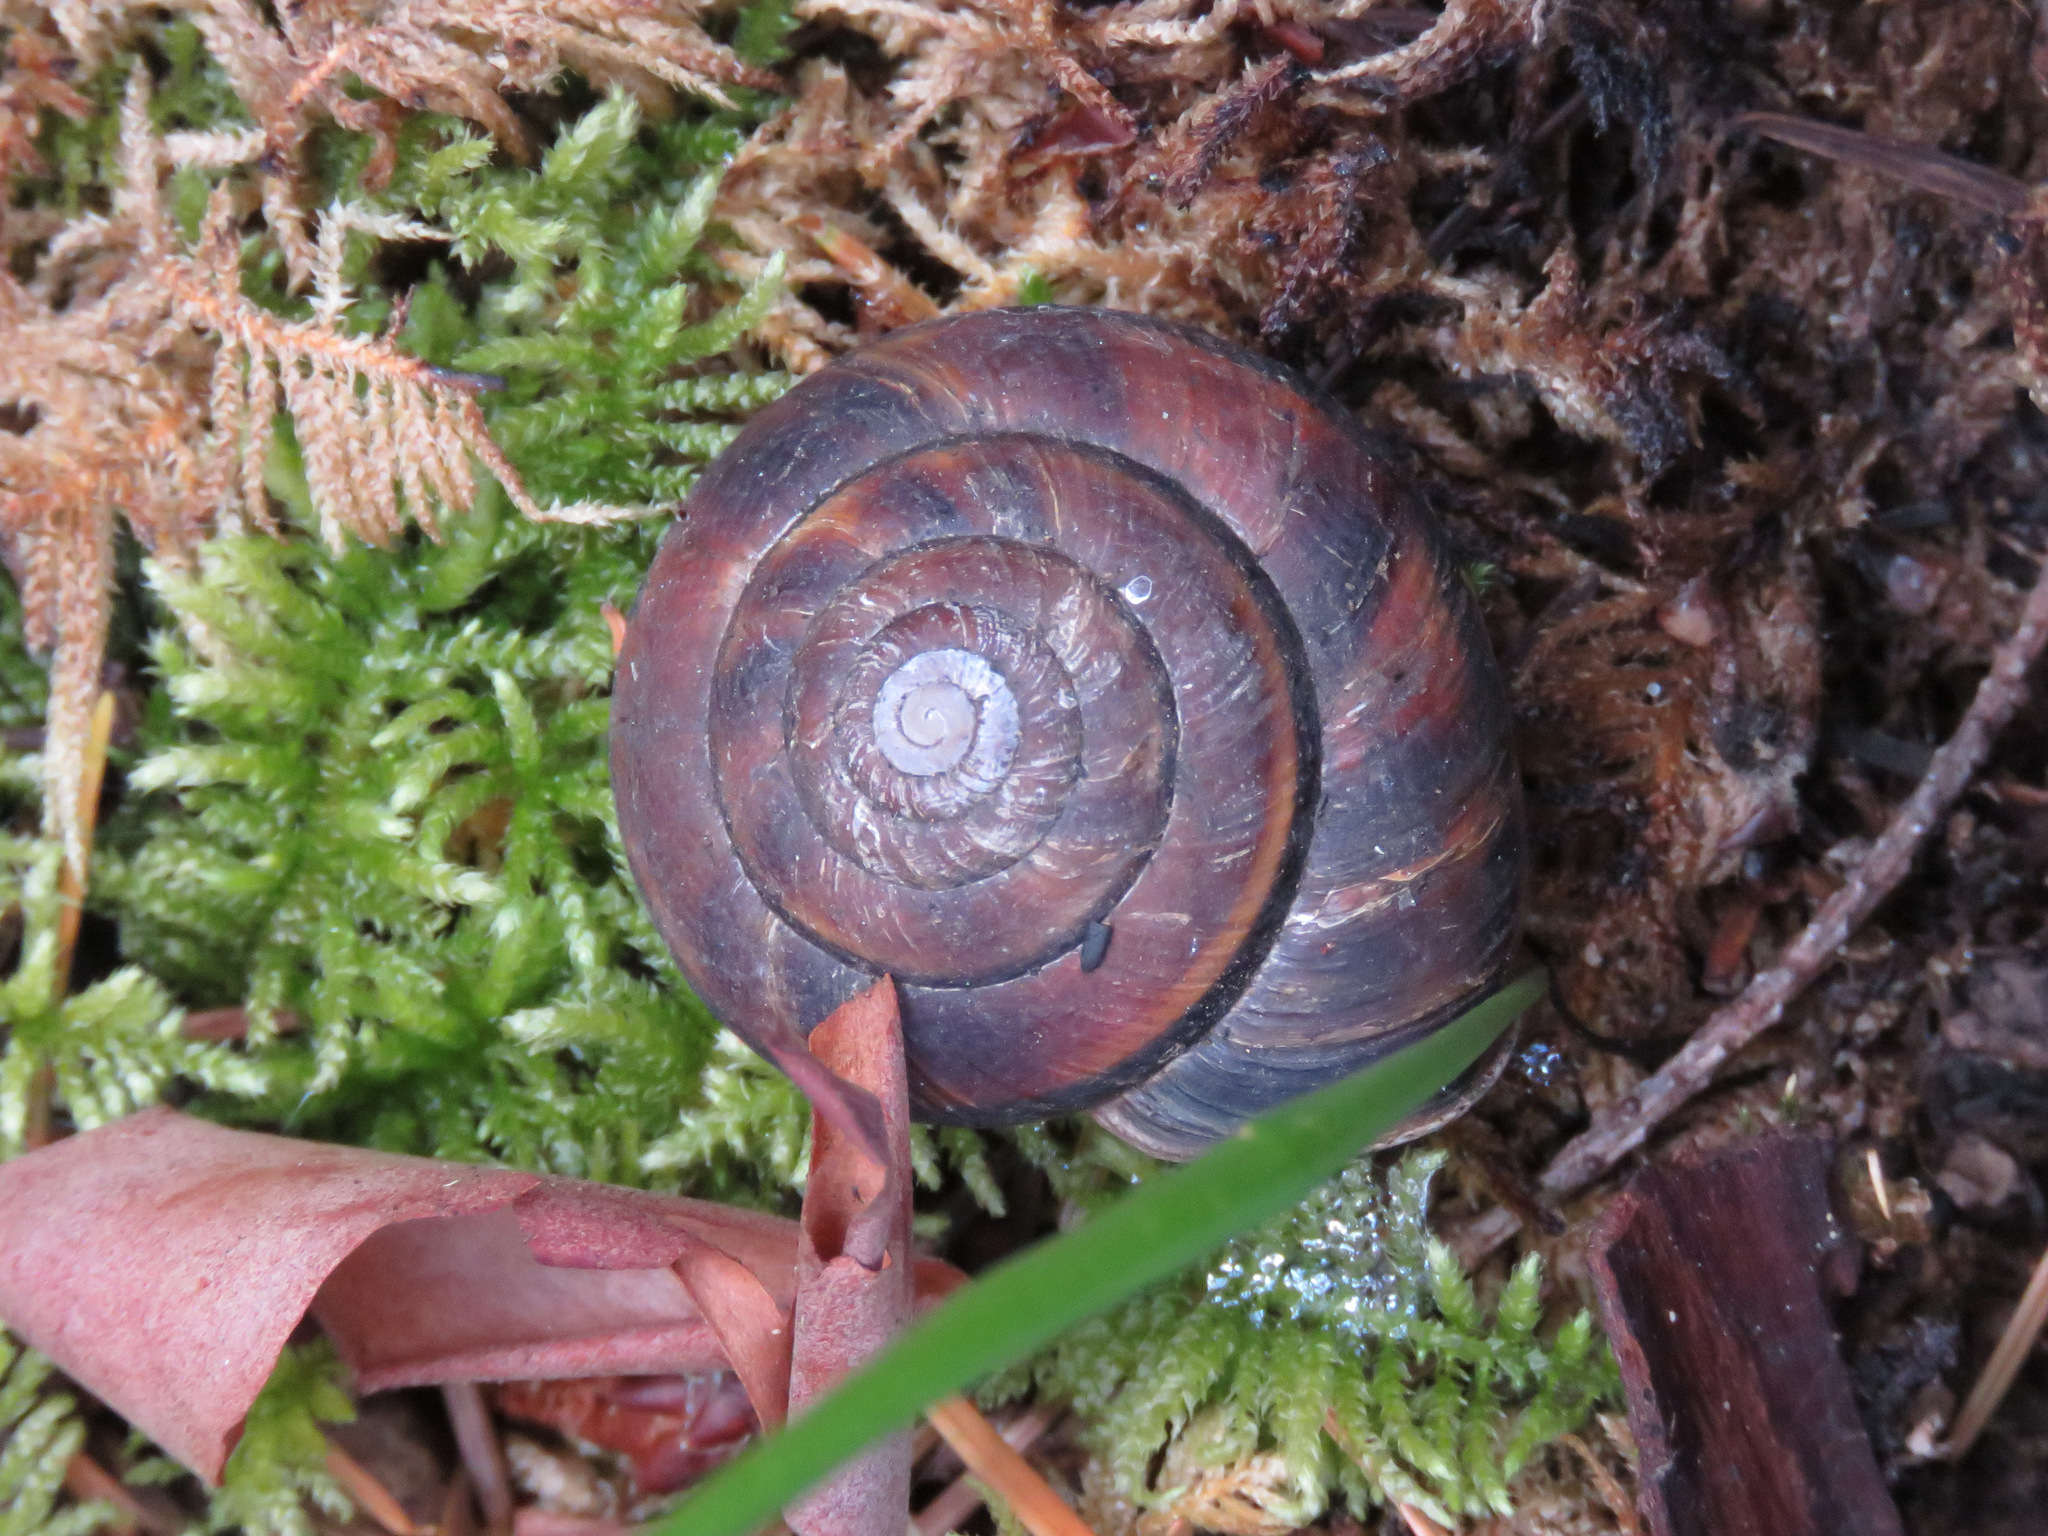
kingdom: Animalia
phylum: Mollusca
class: Gastropoda
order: Stylommatophora
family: Xanthonychidae
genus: Monadenia
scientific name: Monadenia fidelis
